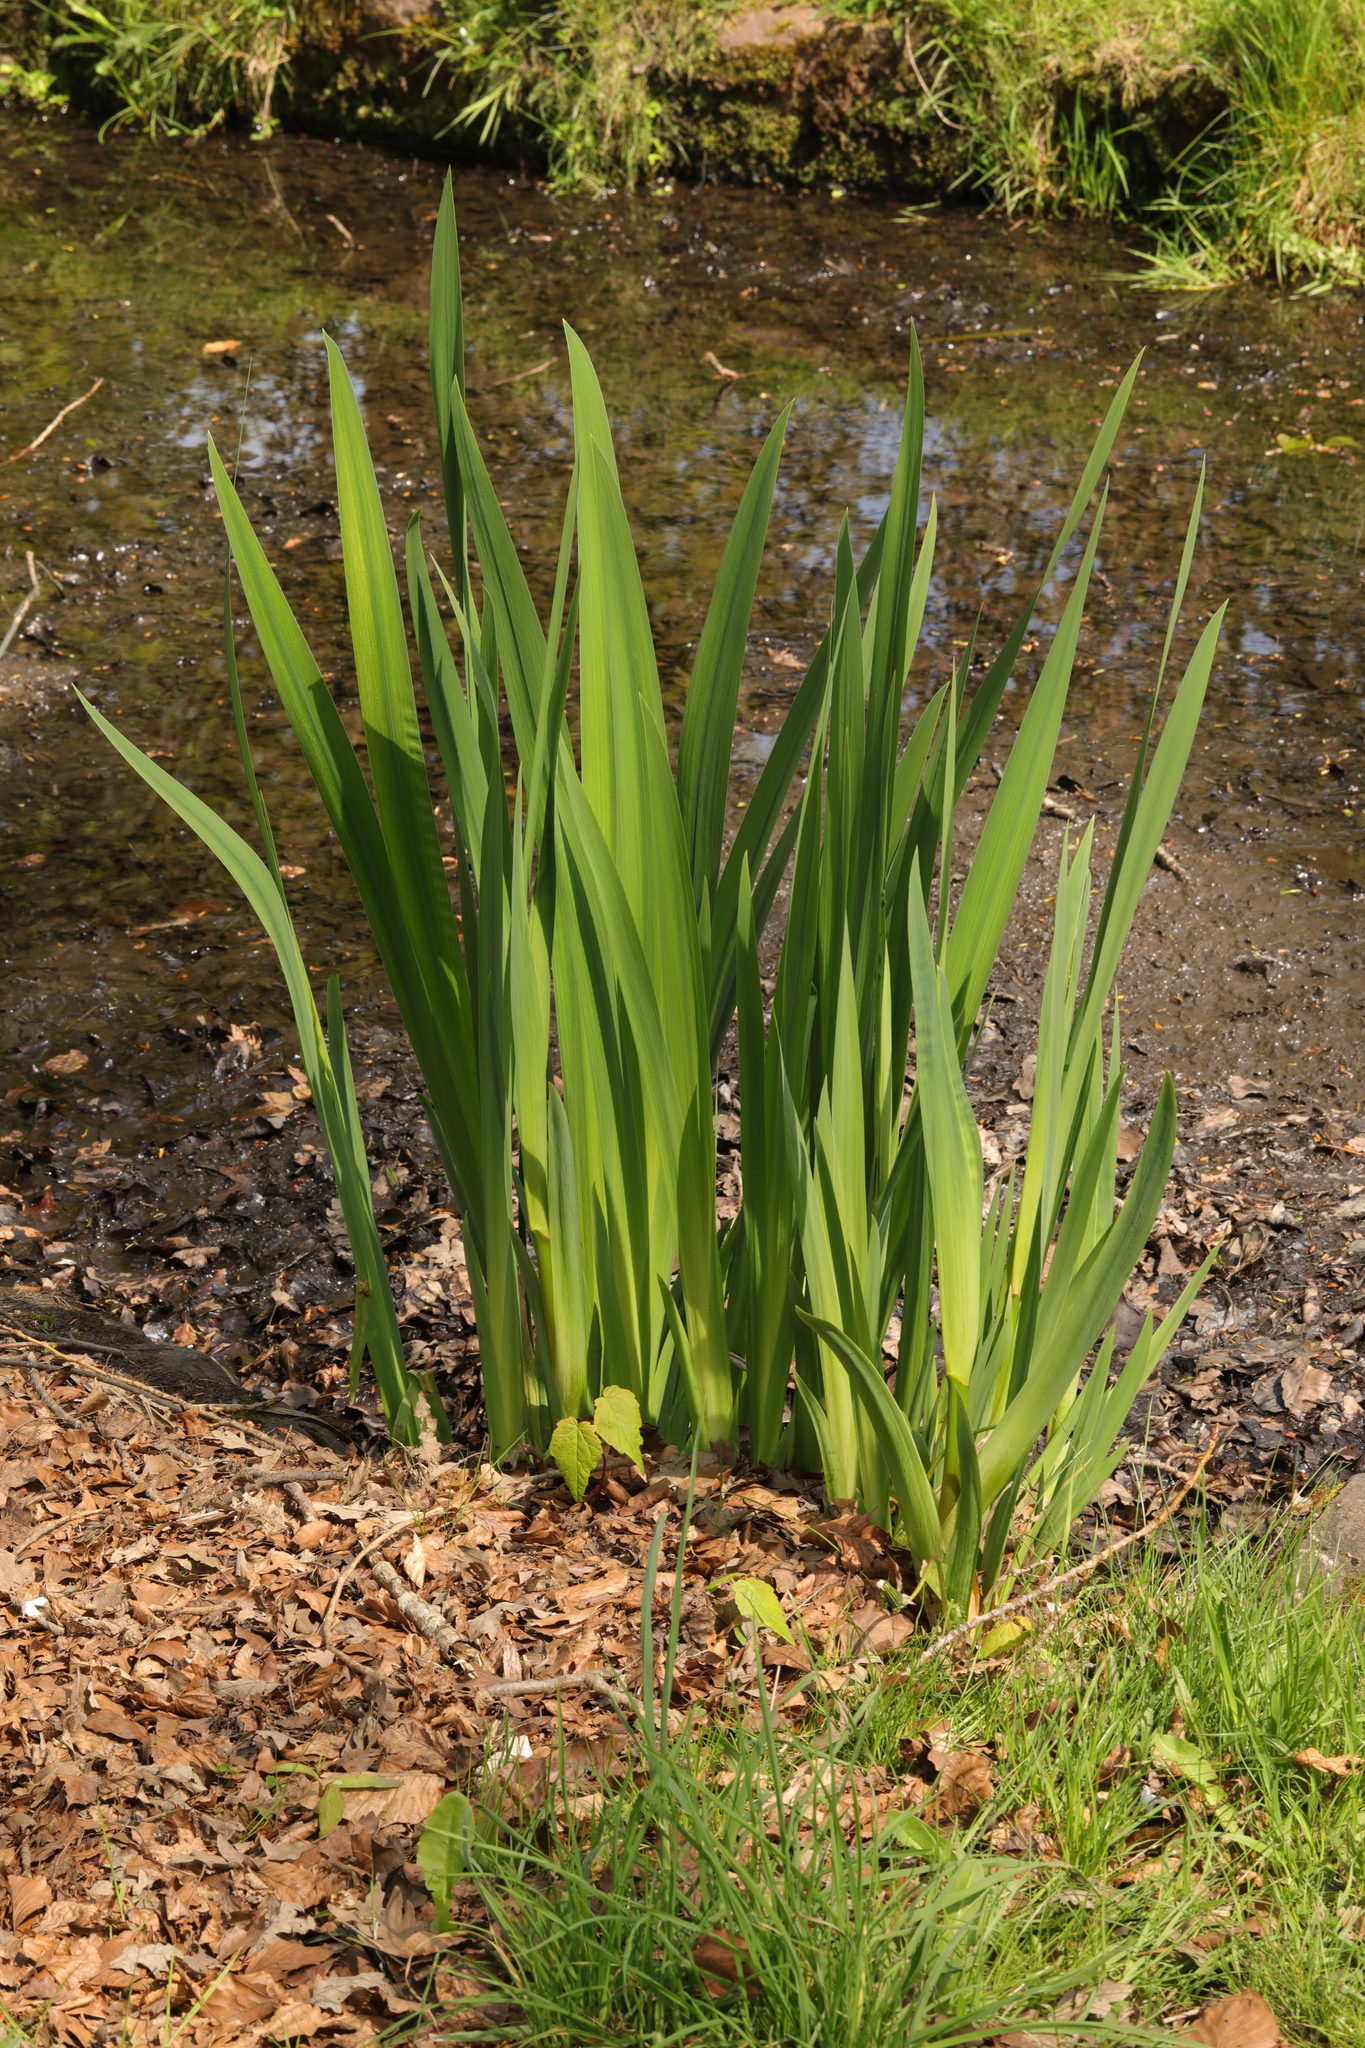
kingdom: Plantae
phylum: Tracheophyta
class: Liliopsida
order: Asparagales
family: Iridaceae
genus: Iris
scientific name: Iris pseudacorus
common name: Yellow flag
